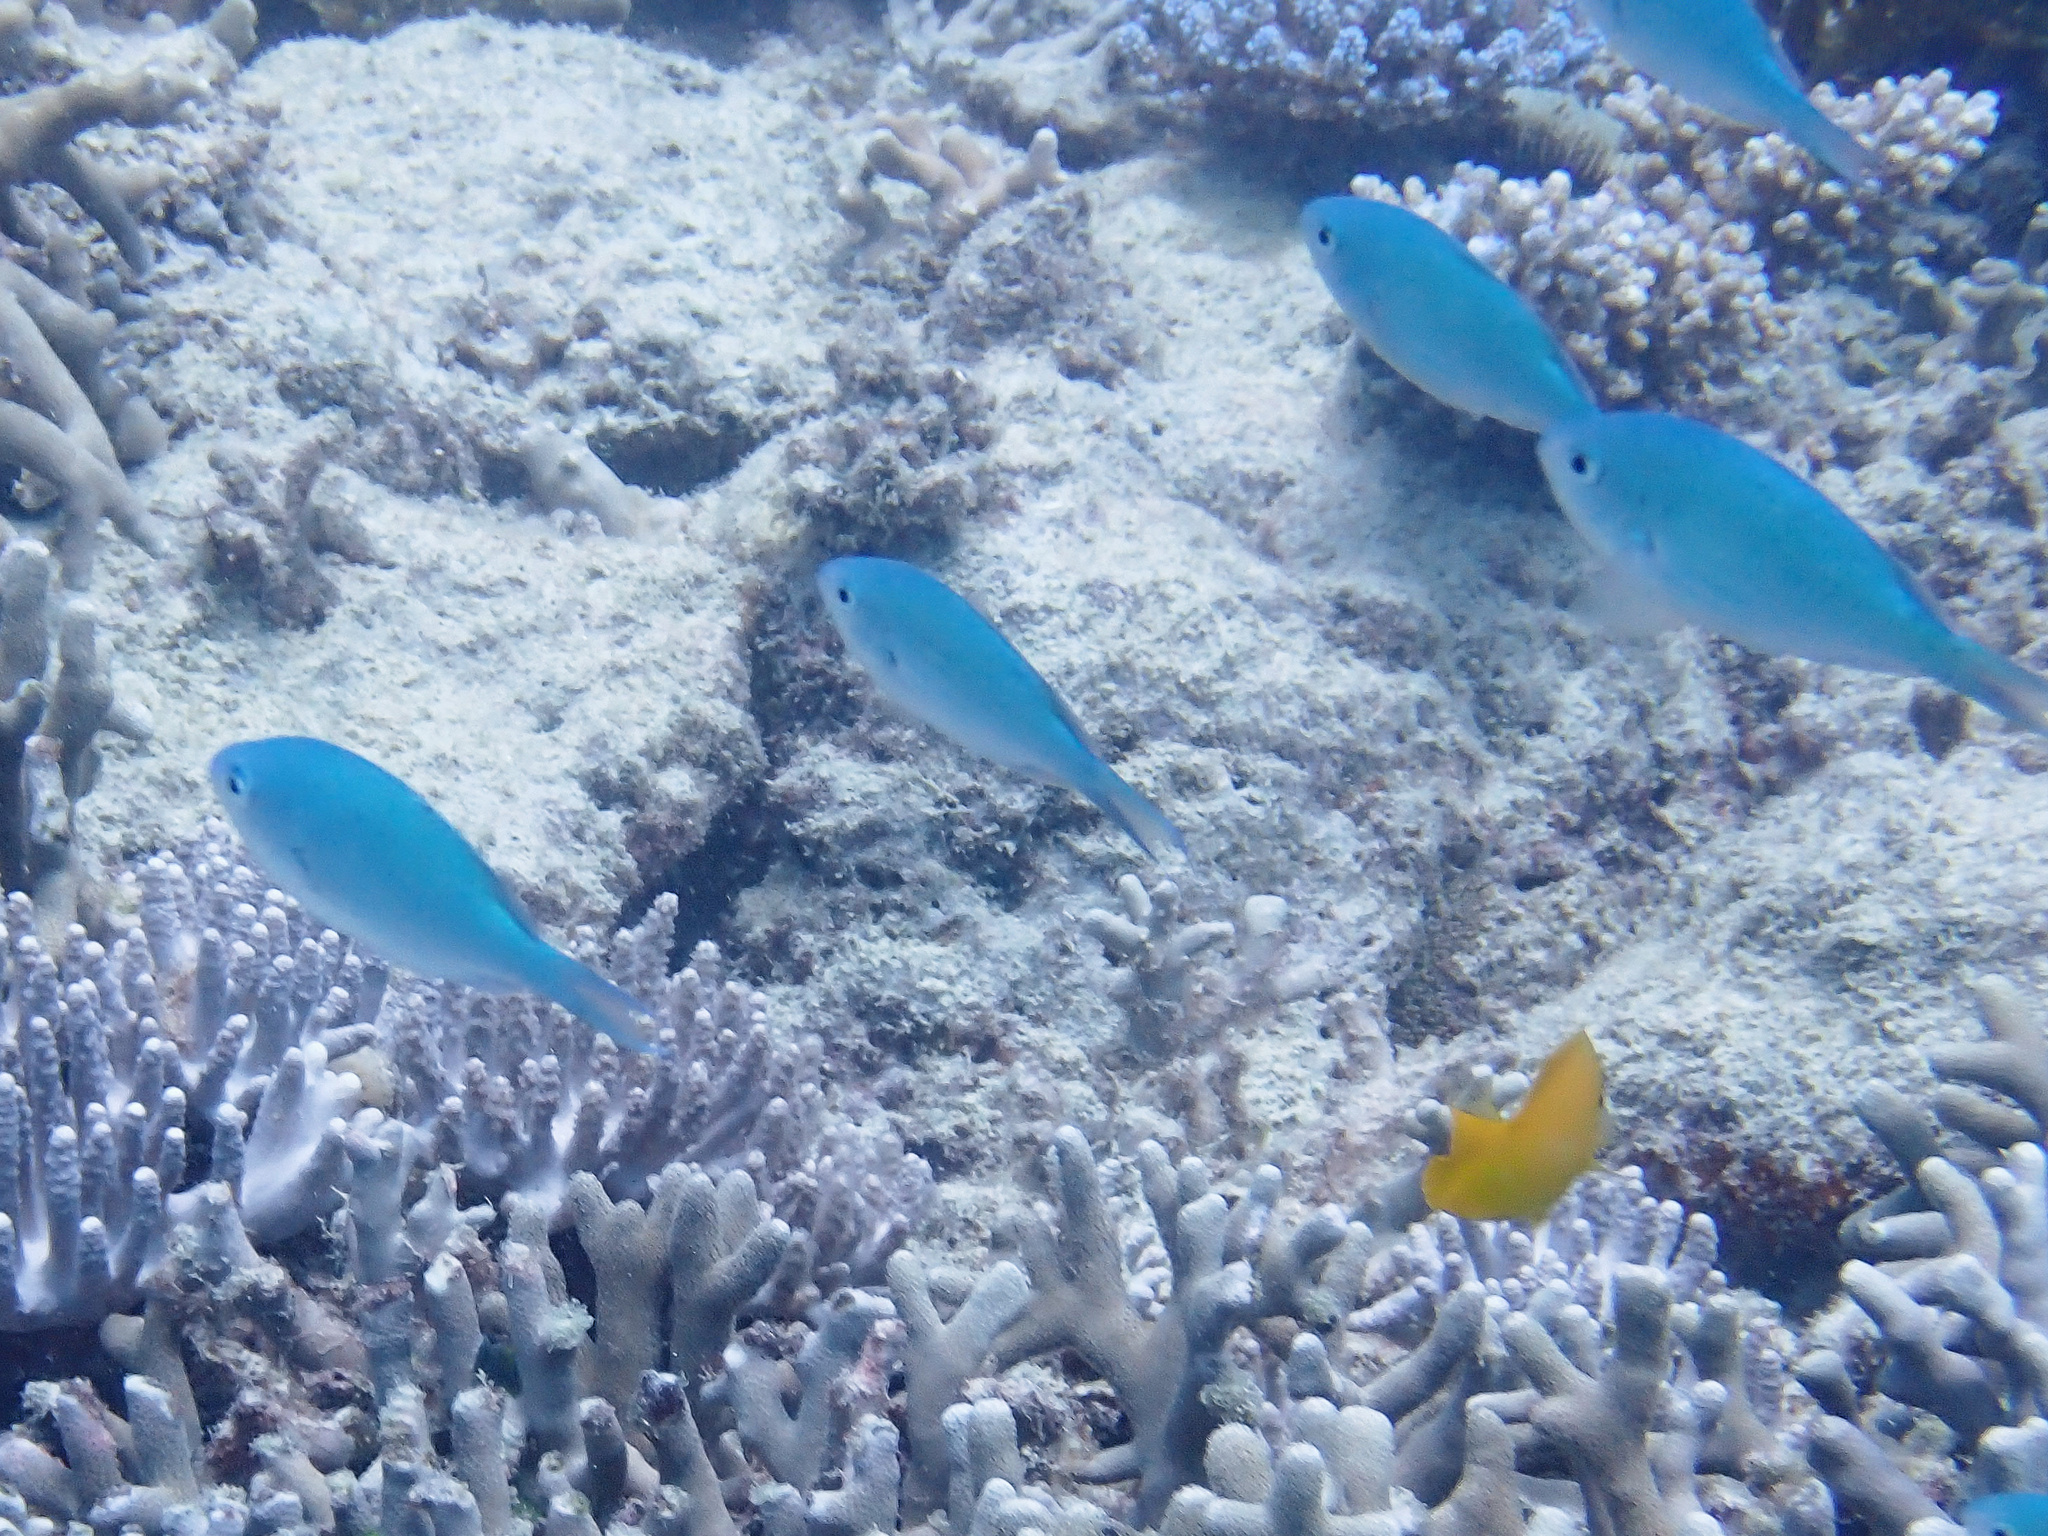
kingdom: Animalia
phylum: Chordata
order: Perciformes
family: Pomacentridae
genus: Chromis
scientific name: Chromis viridis
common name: Blue-green chromis
